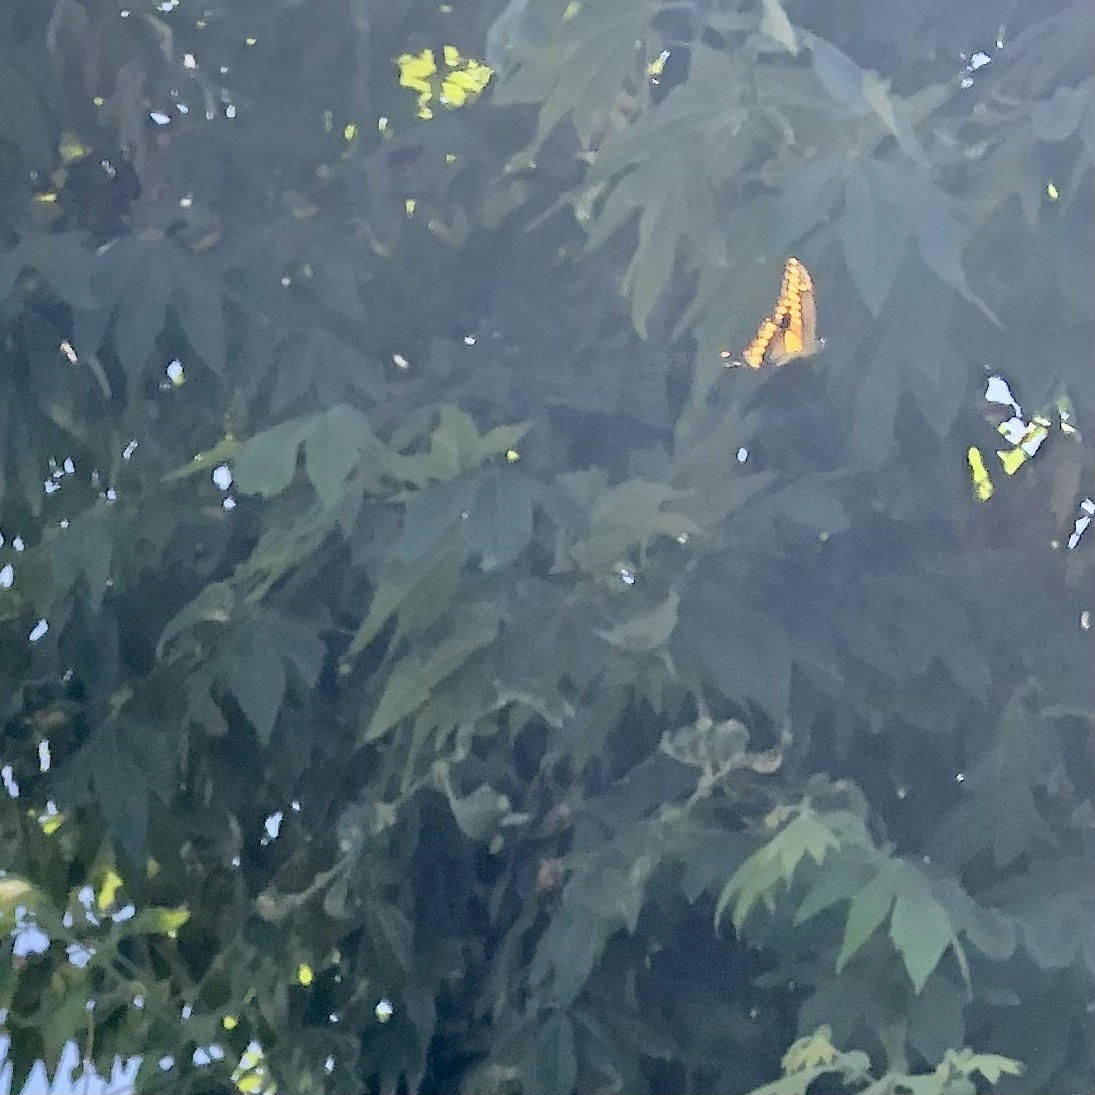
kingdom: Animalia
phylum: Arthropoda
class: Insecta
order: Lepidoptera
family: Papilionidae
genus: Papilio
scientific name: Papilio rumiko
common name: Western giant swallowtail
